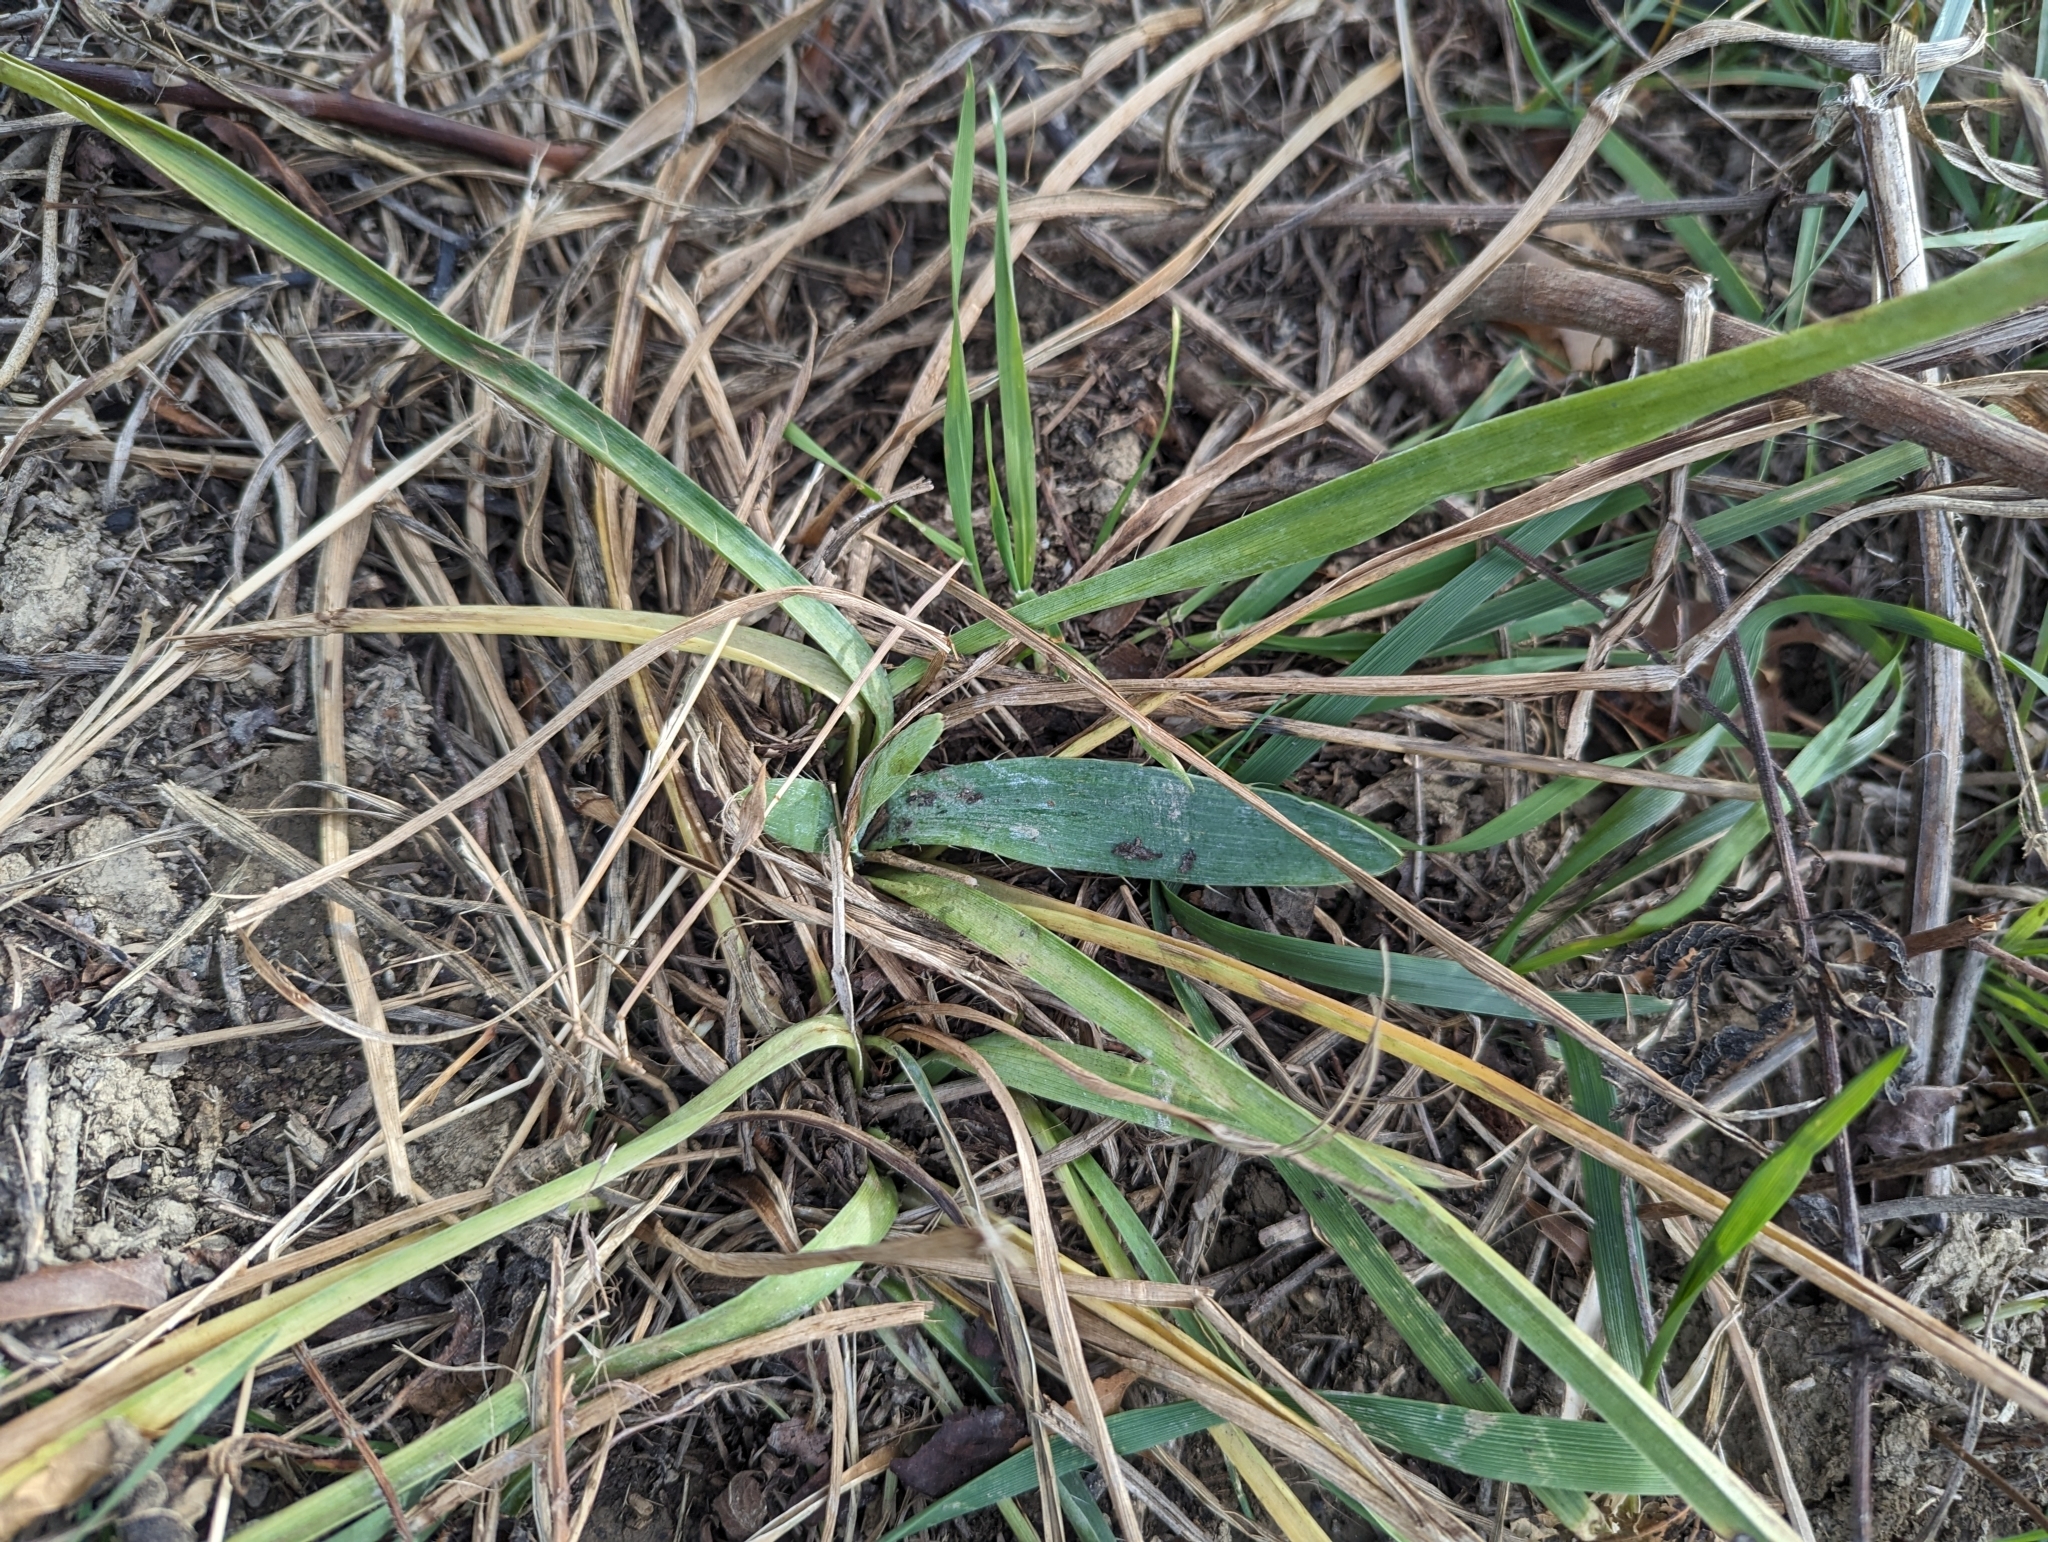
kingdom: Plantae
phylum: Tracheophyta
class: Magnoliopsida
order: Apiales
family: Apiaceae
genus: Eryngium
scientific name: Eryngium yuccifolium
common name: Button eryngo
